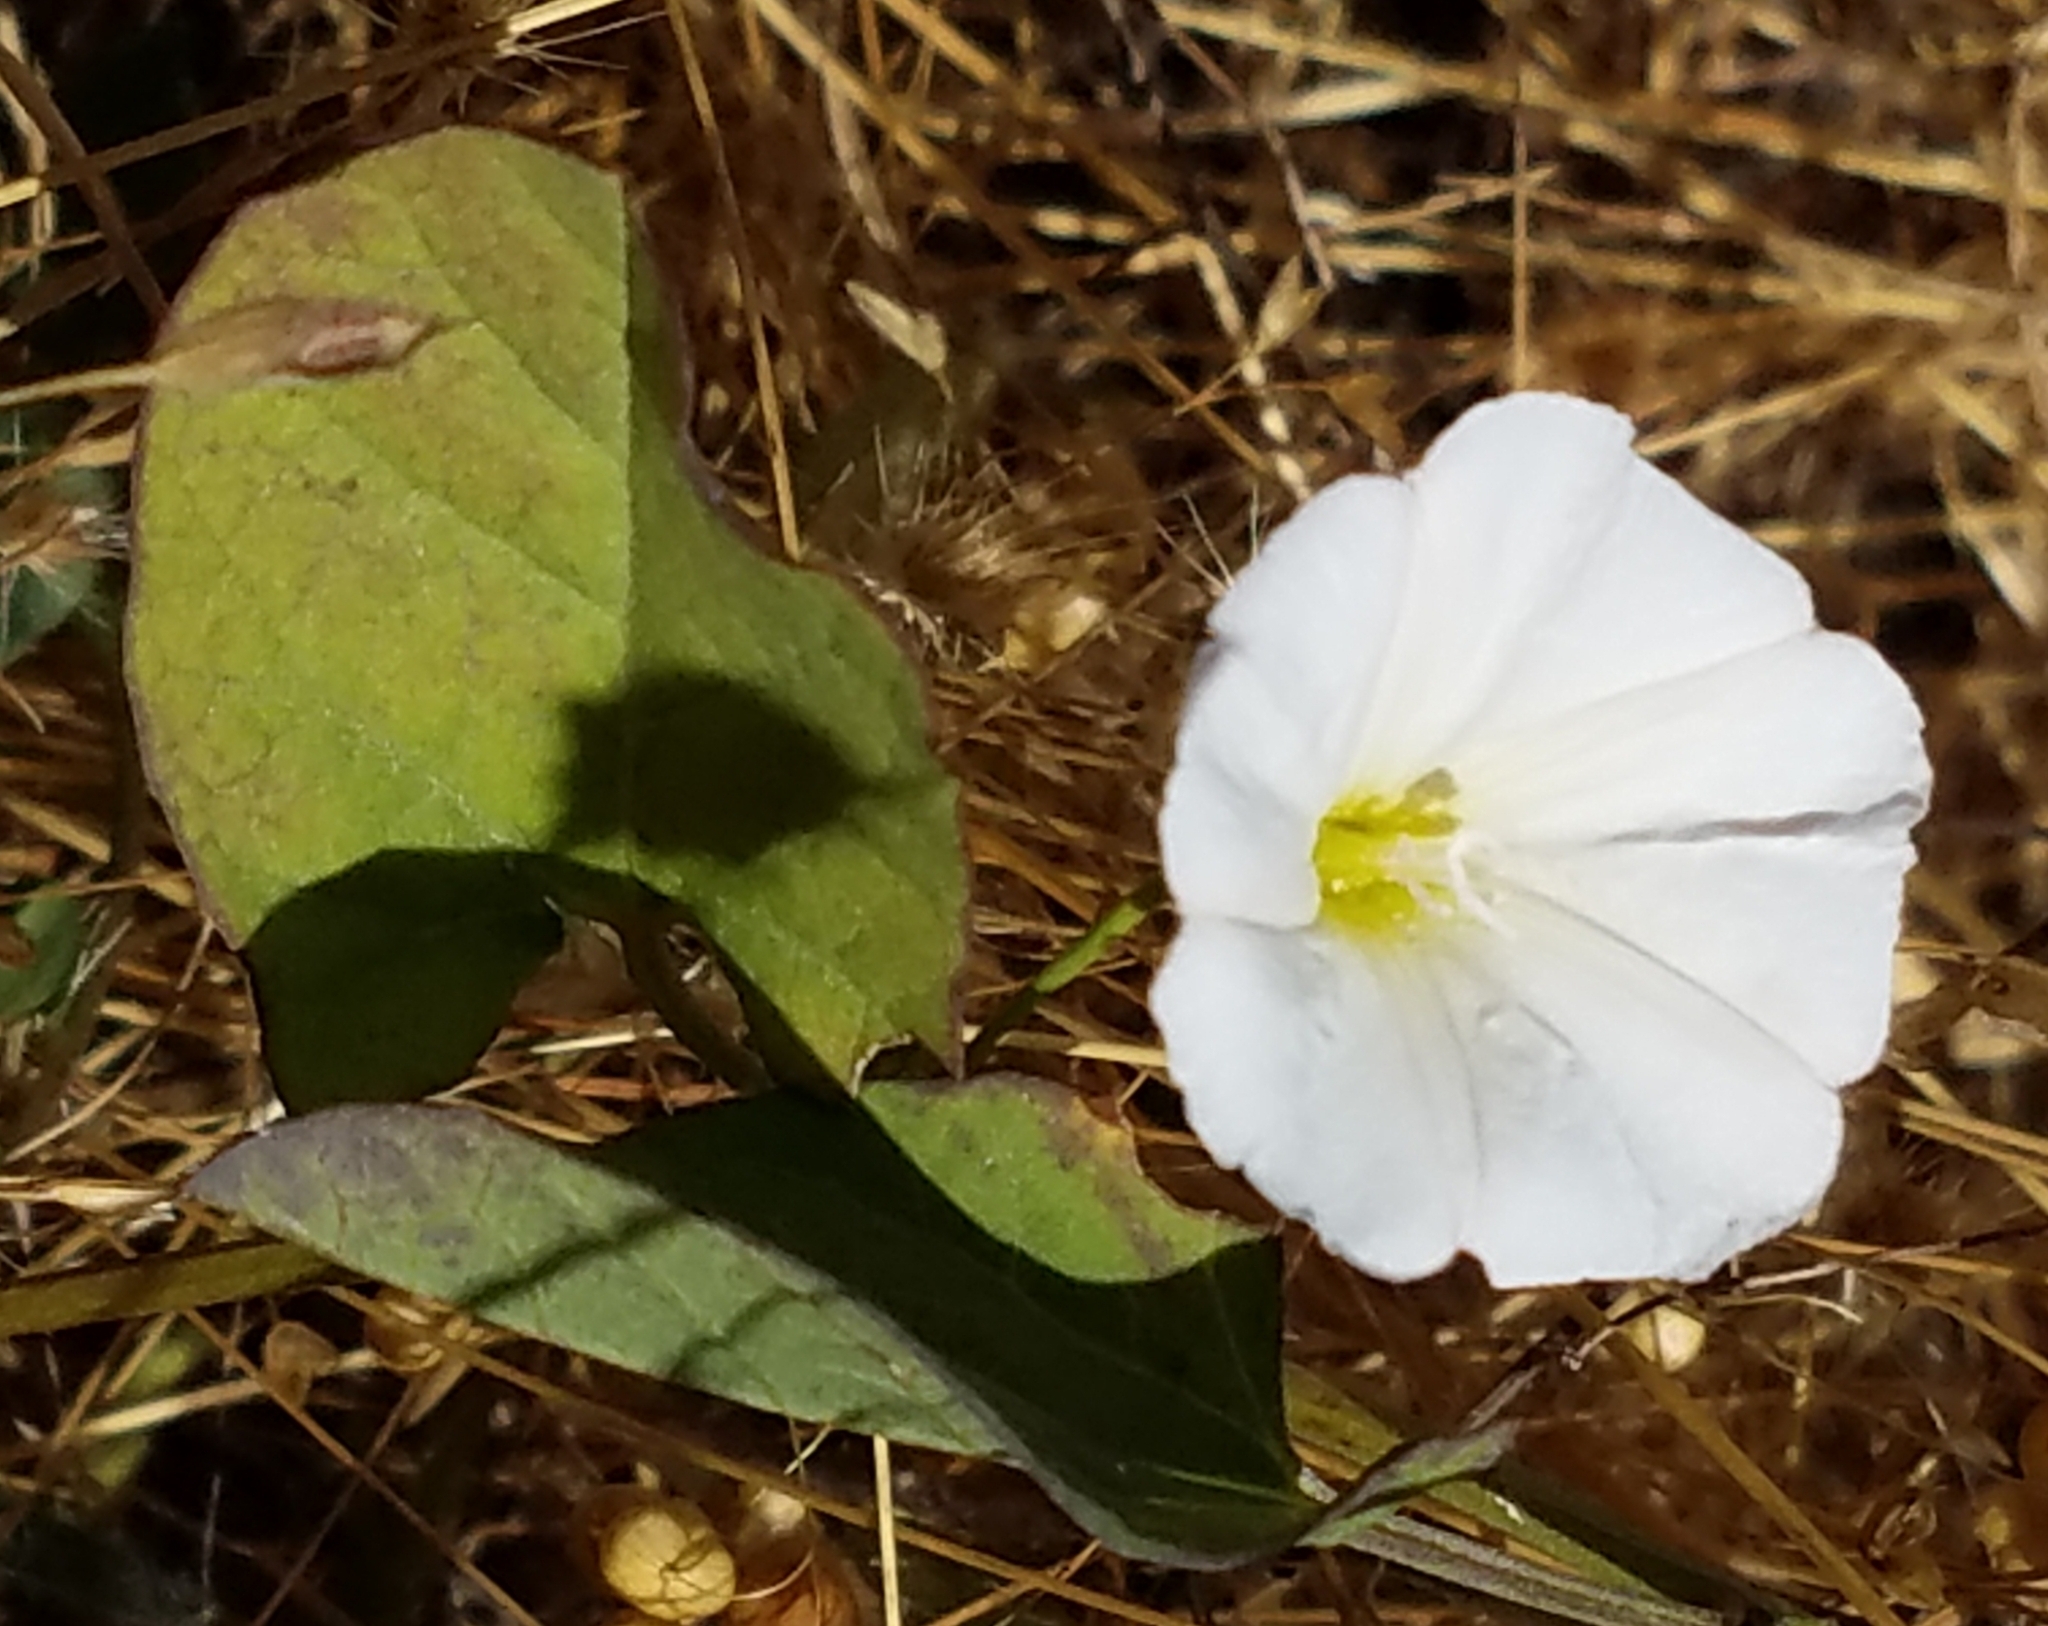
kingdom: Plantae
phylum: Tracheophyta
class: Magnoliopsida
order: Solanales
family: Convolvulaceae
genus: Convolvulus
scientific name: Convolvulus arvensis
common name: Field bindweed
